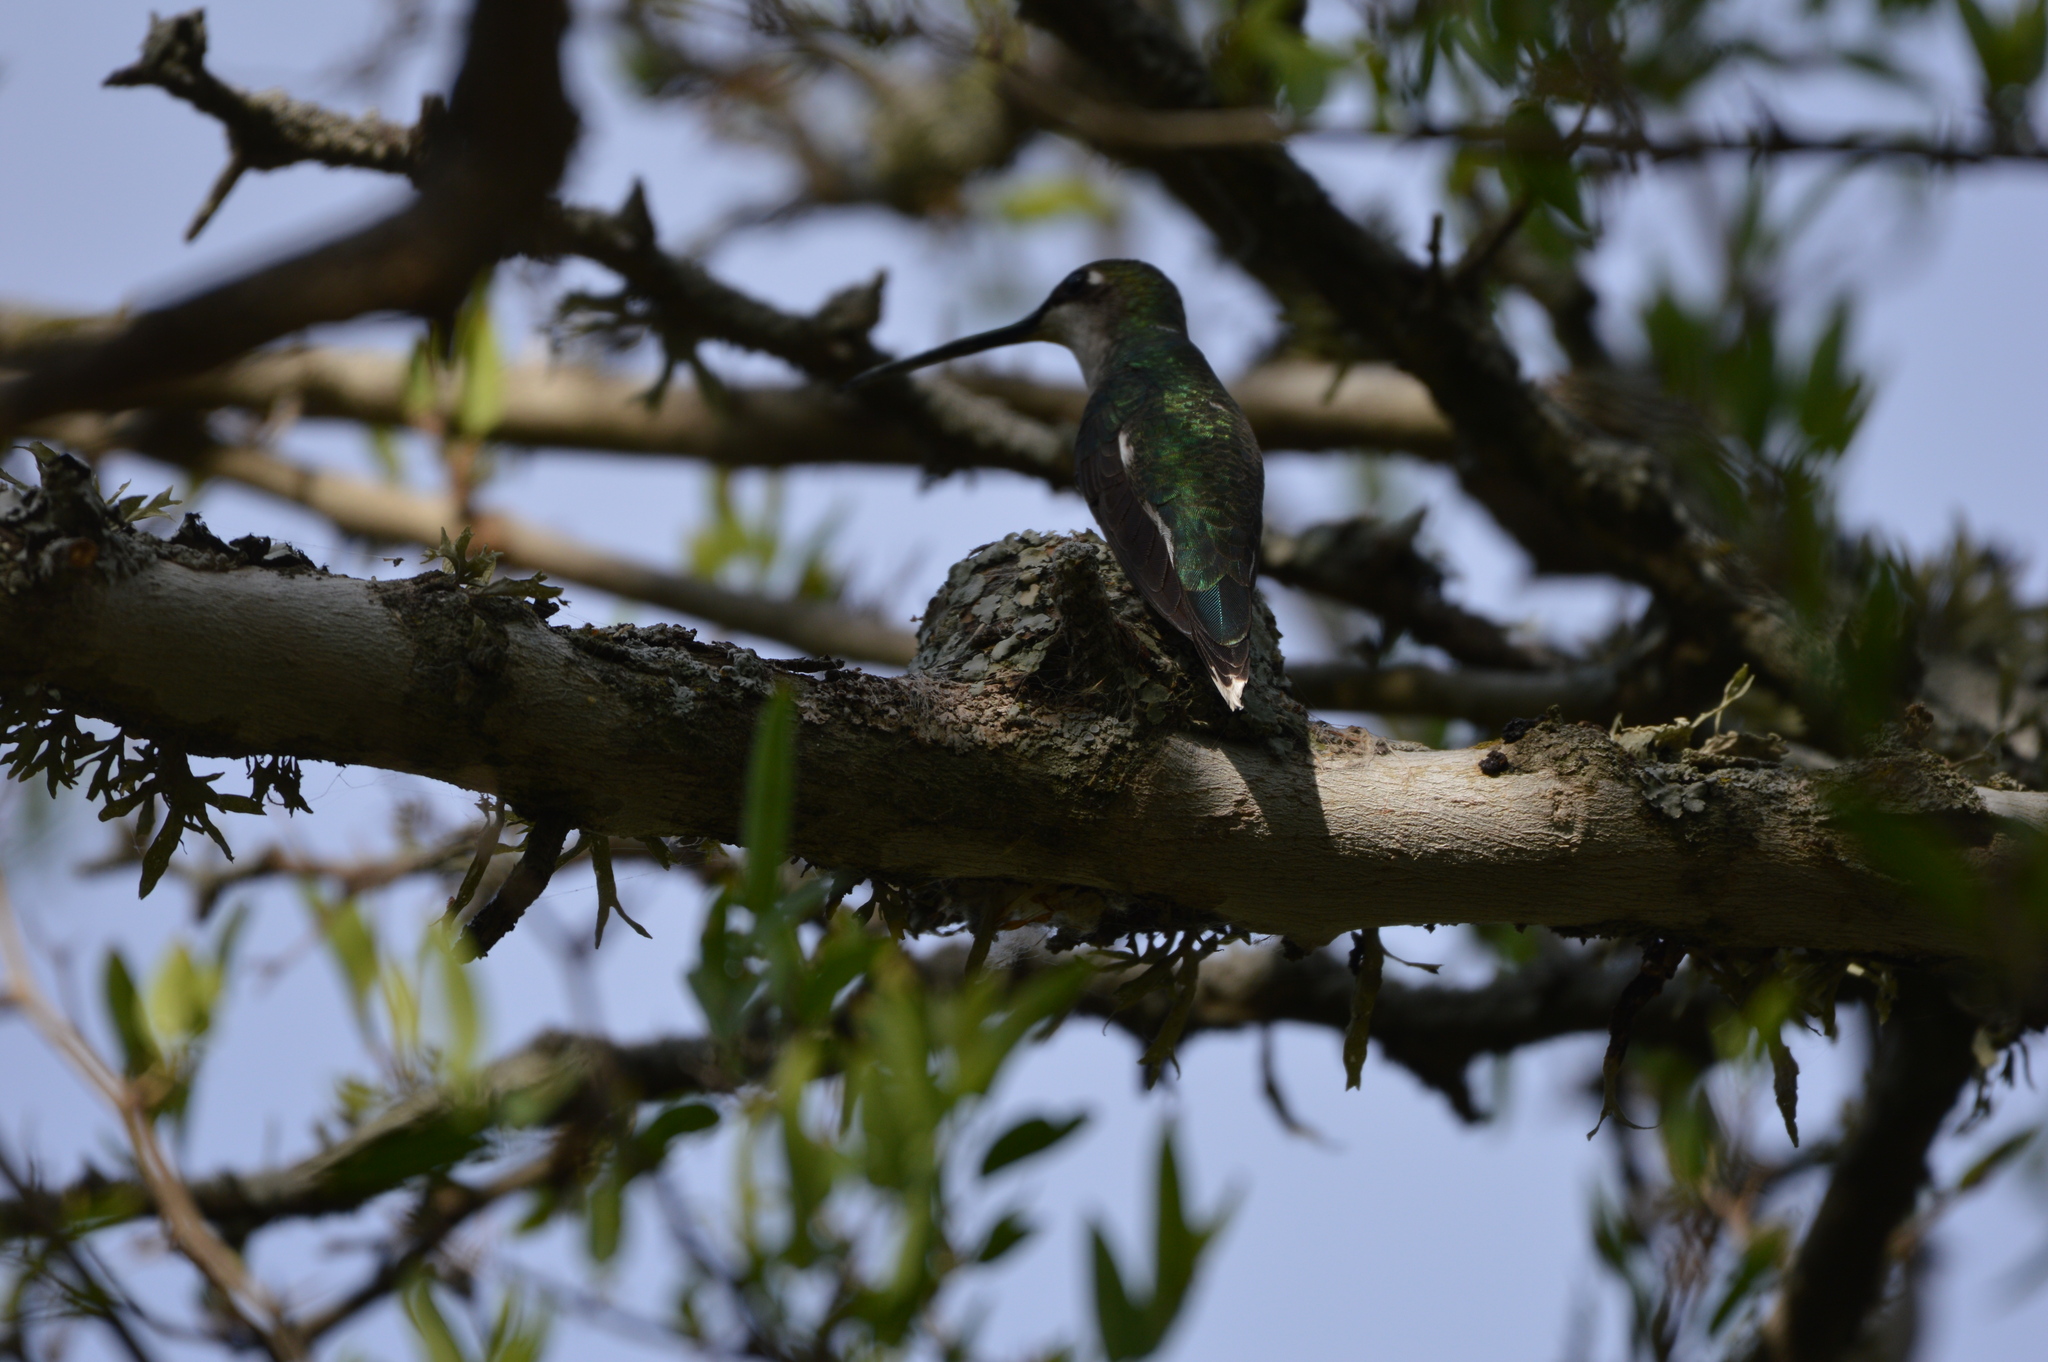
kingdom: Animalia
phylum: Chordata
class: Aves
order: Apodiformes
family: Trochilidae
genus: Heliomaster
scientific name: Heliomaster furcifer
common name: Blue-tufted starthroat
